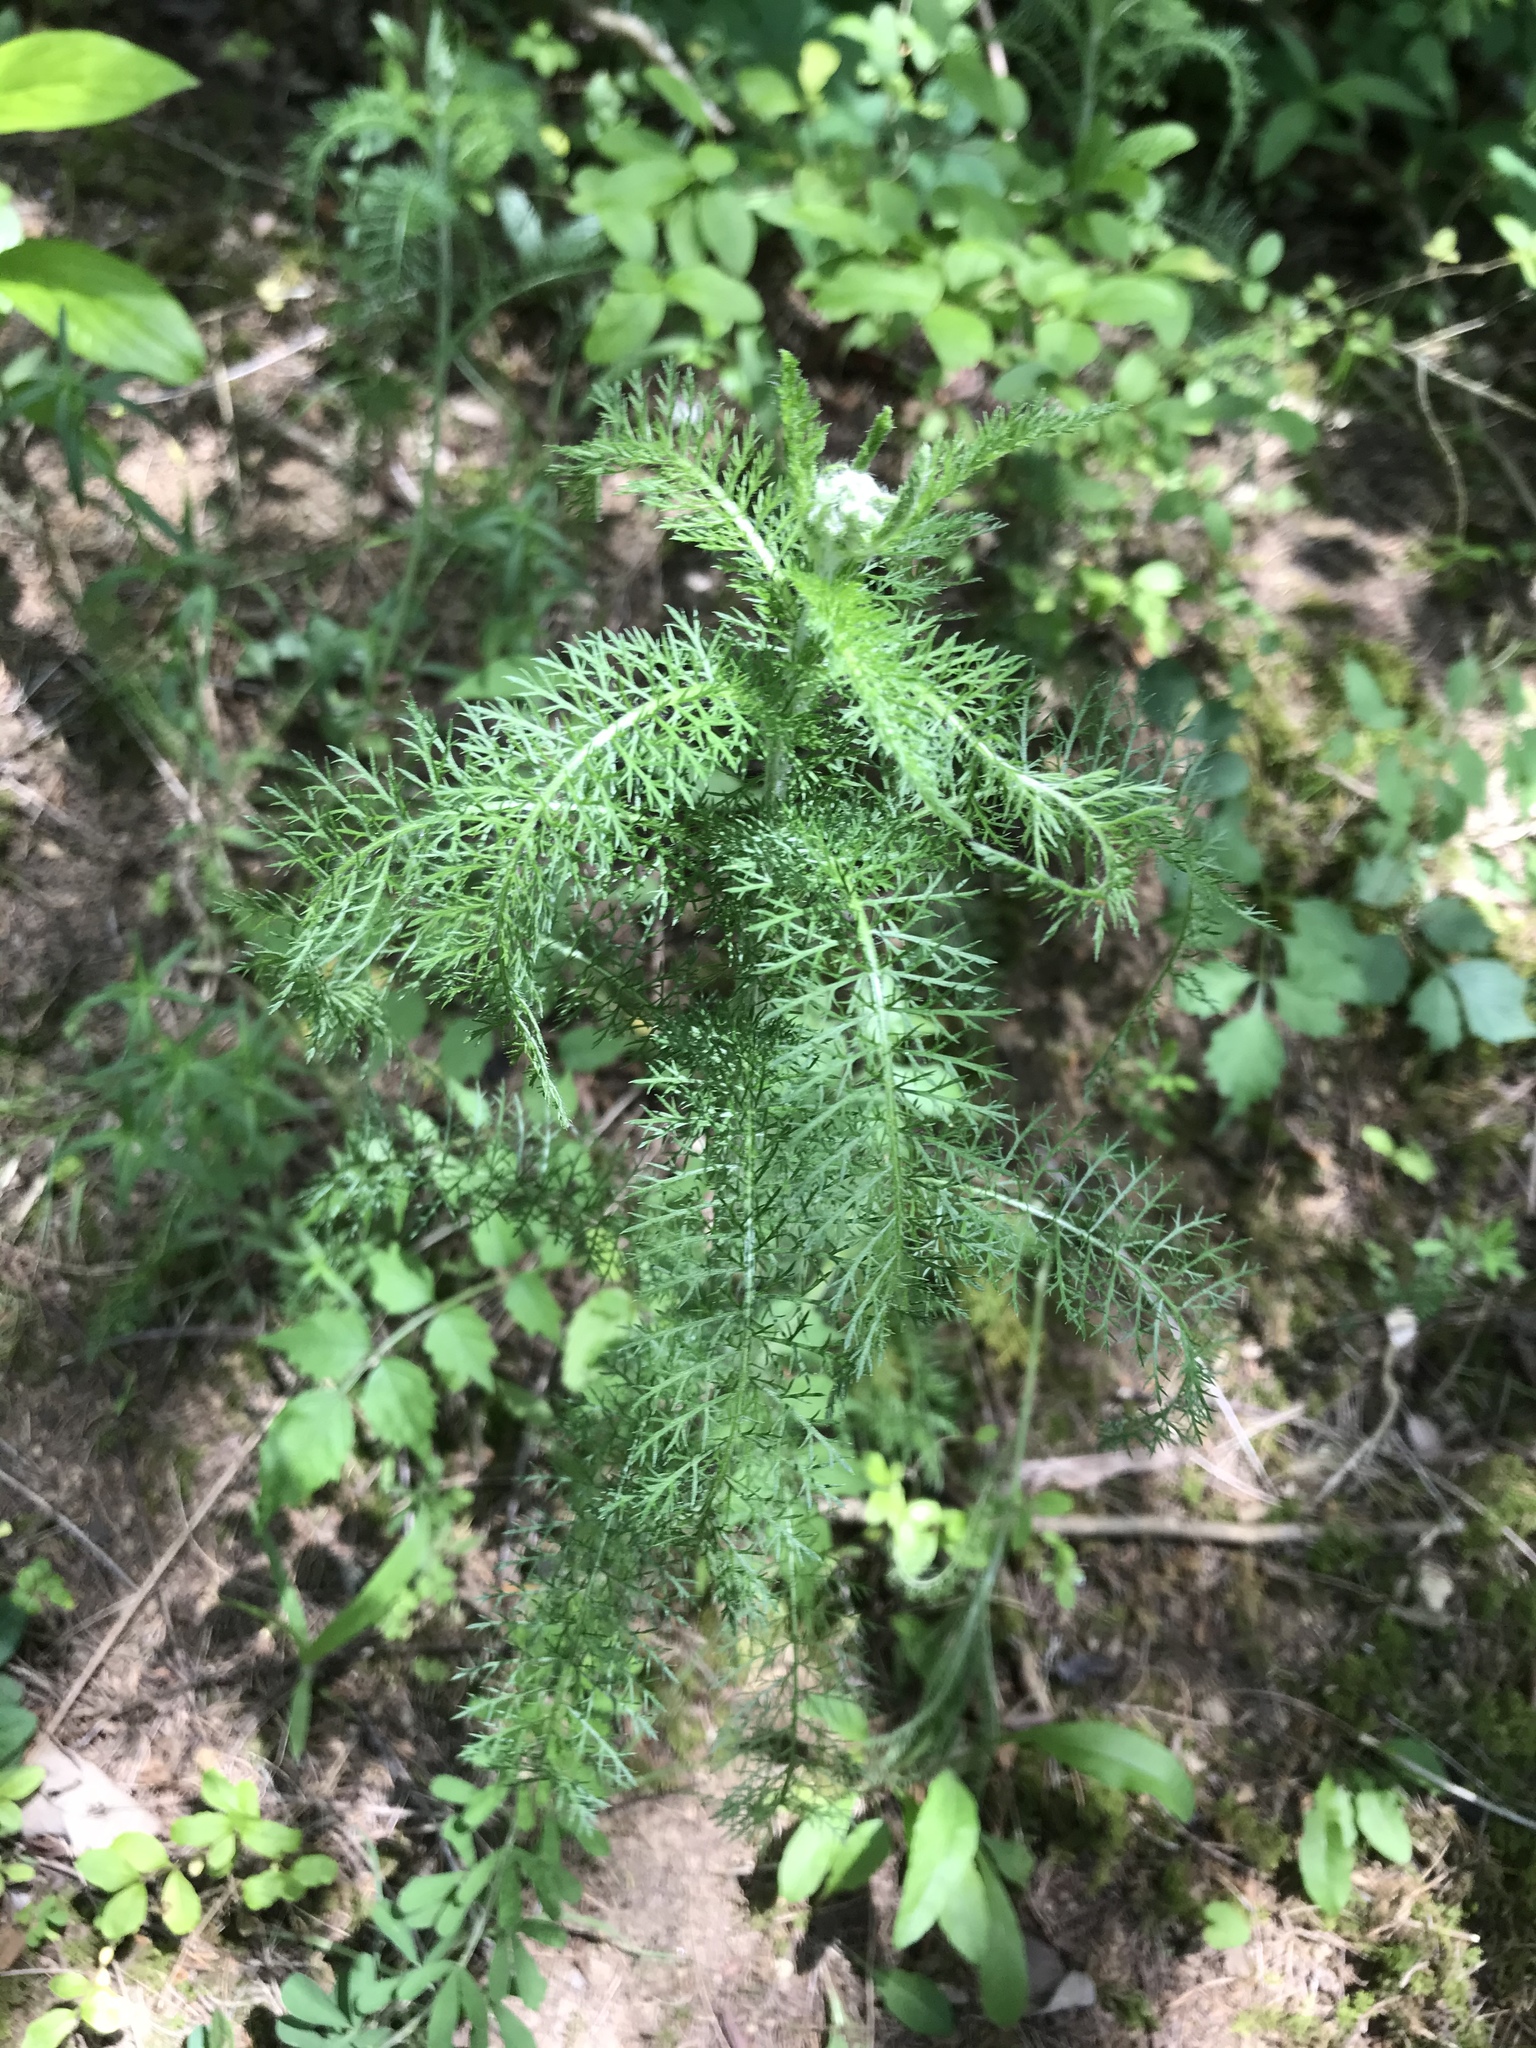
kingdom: Plantae
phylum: Tracheophyta
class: Magnoliopsida
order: Asterales
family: Asteraceae
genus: Achillea
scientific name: Achillea millefolium
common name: Yarrow
